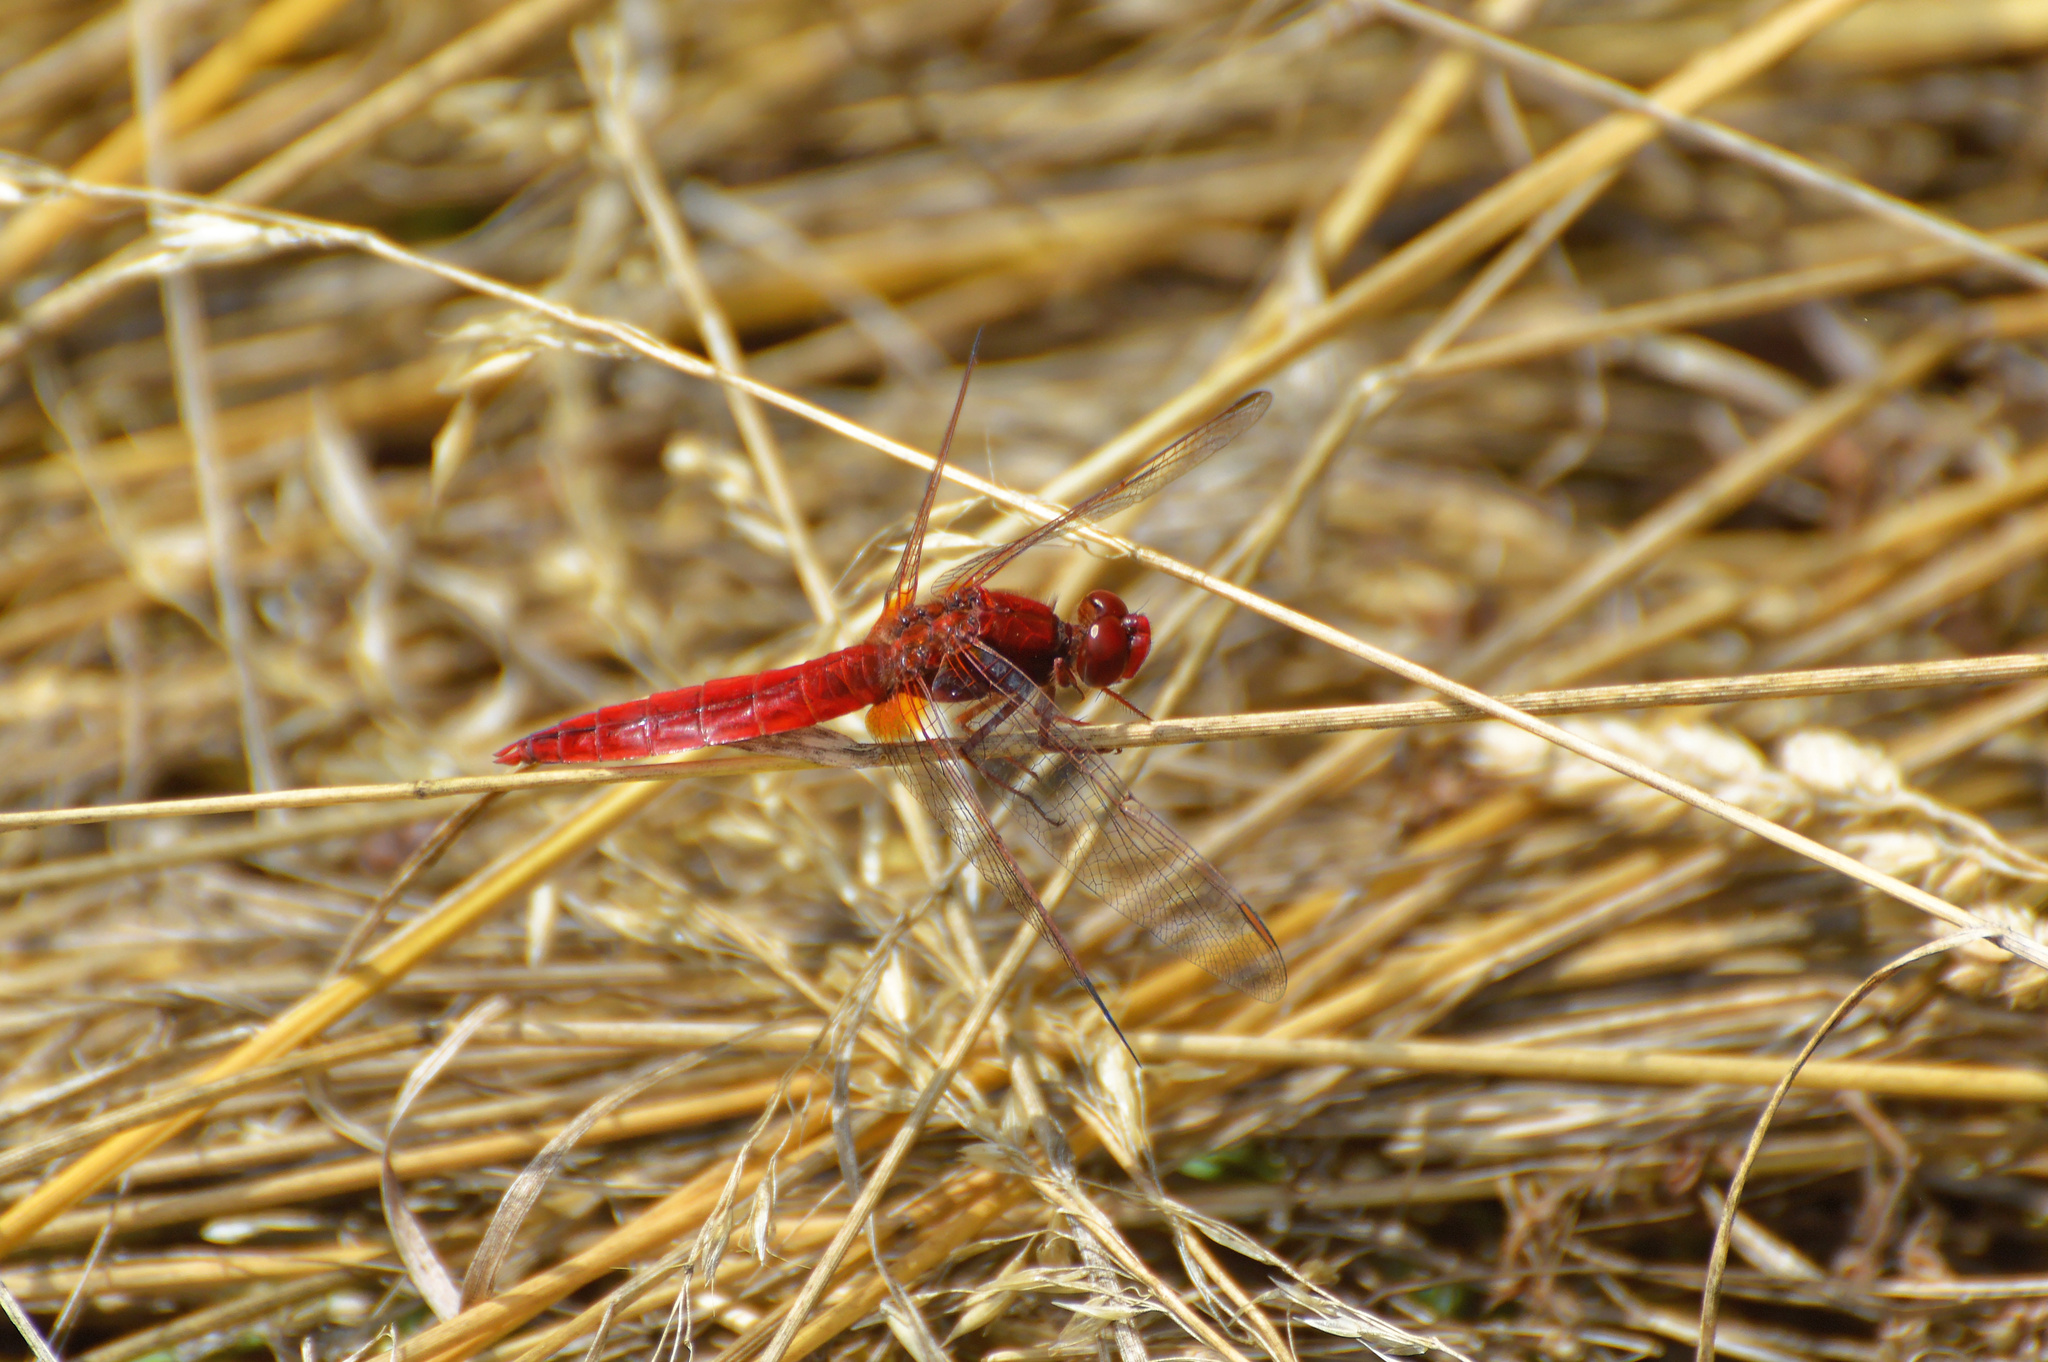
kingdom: Animalia
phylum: Arthropoda
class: Insecta
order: Odonata
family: Libellulidae
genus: Crocothemis
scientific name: Crocothemis erythraea
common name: Scarlet dragonfly
